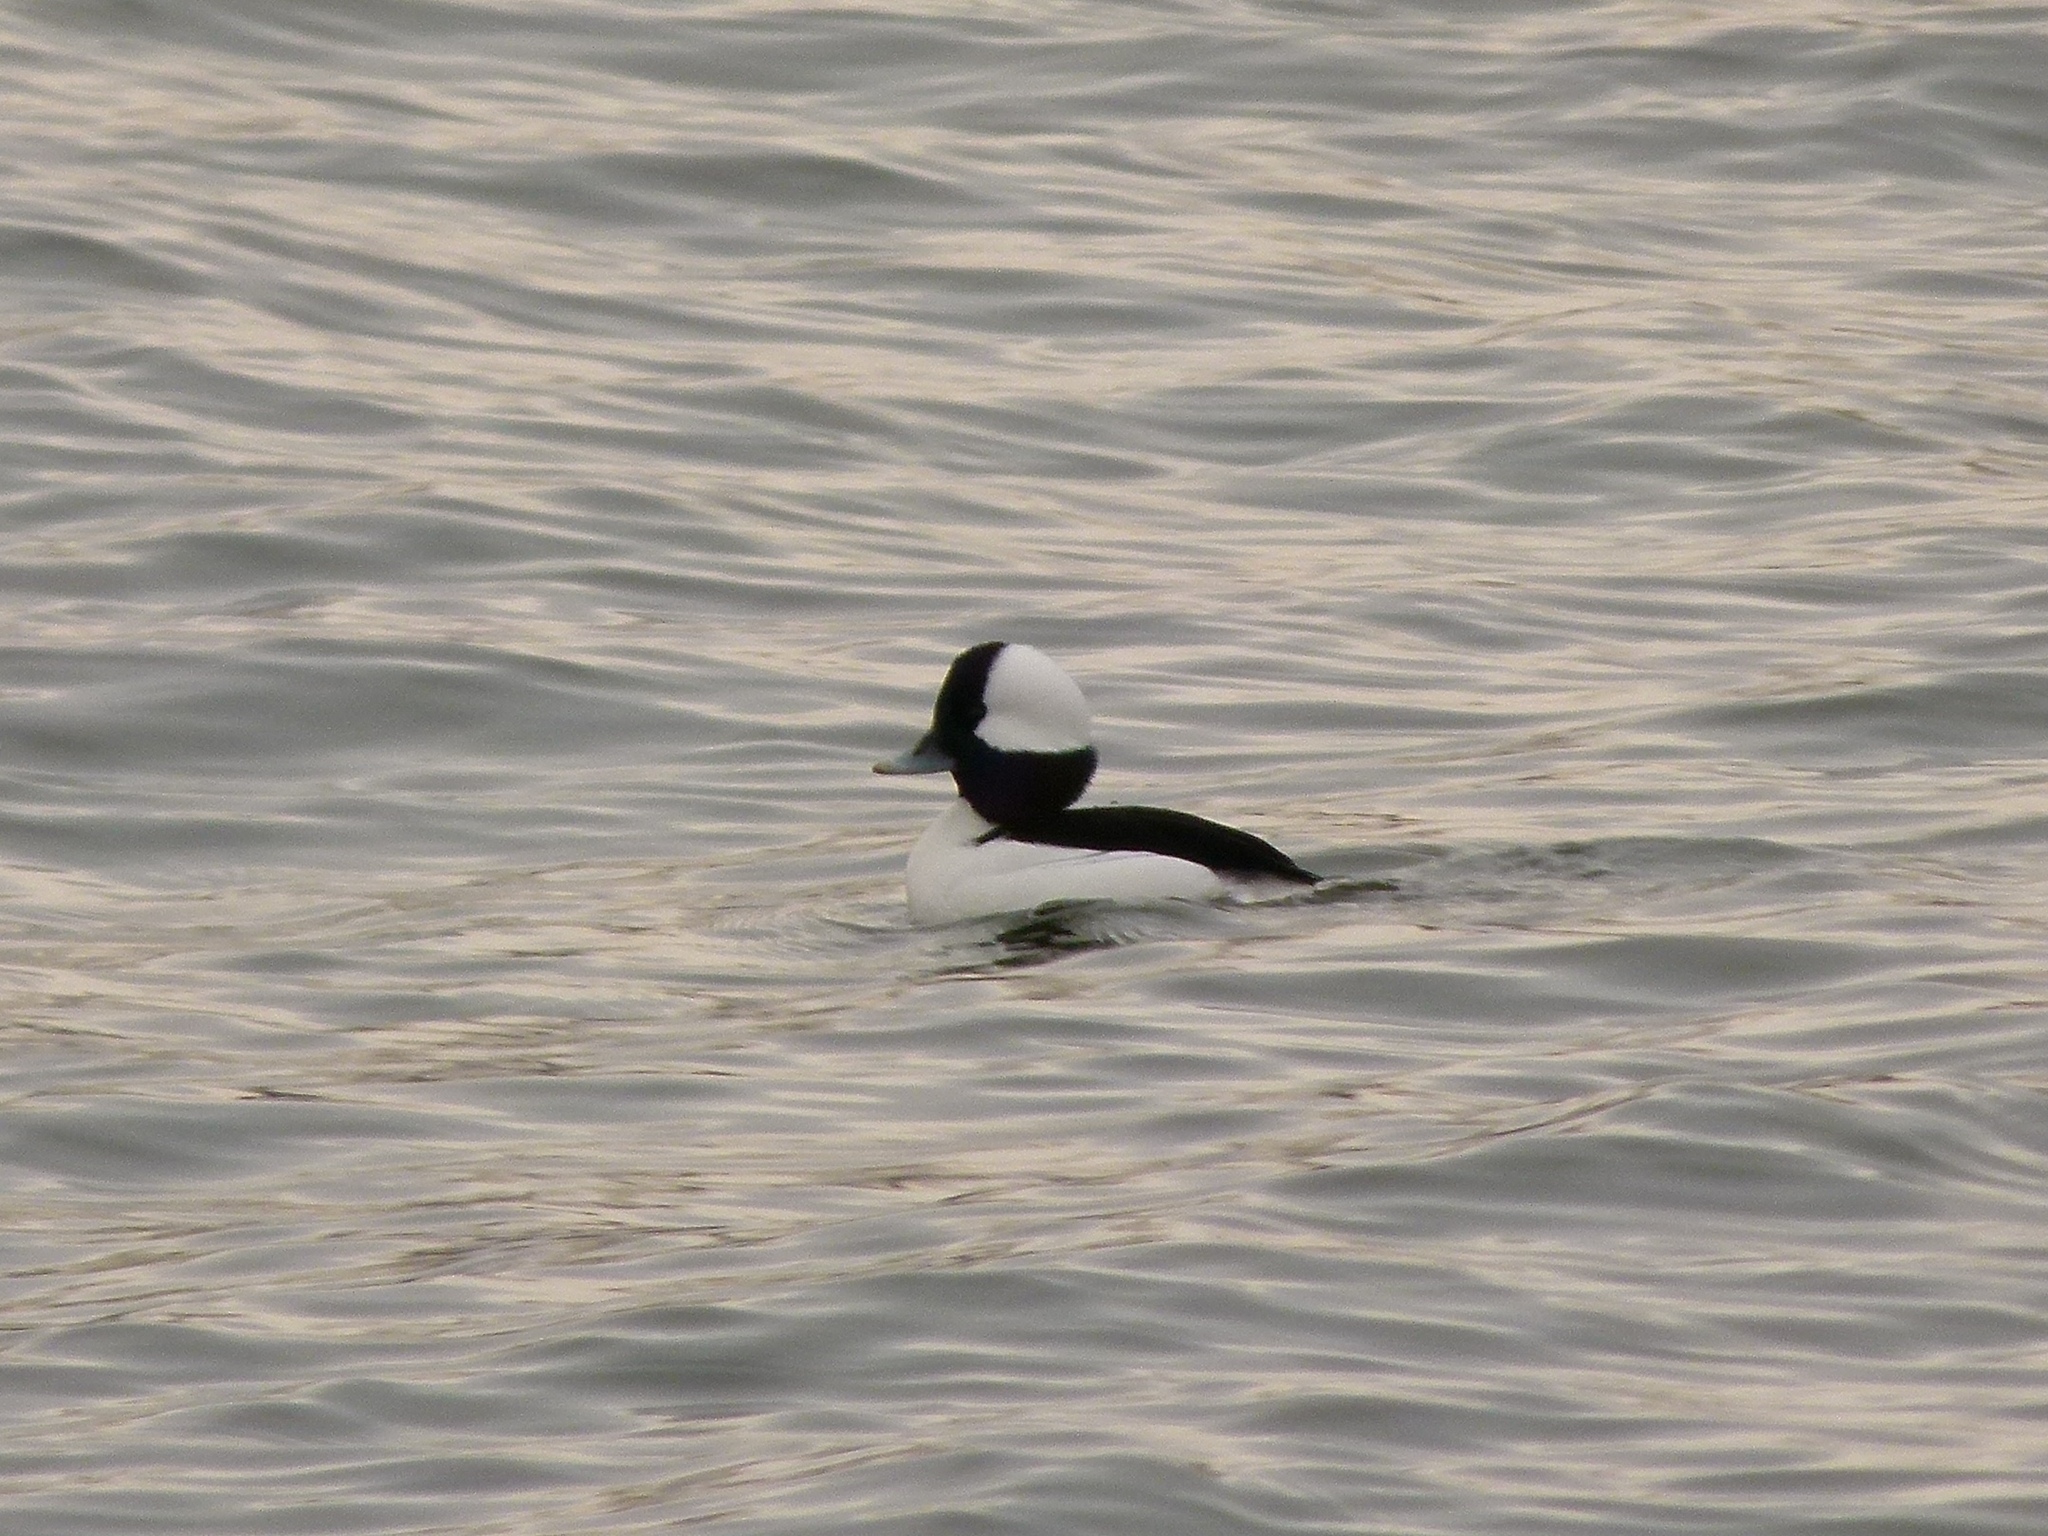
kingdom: Animalia
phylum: Chordata
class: Aves
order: Anseriformes
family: Anatidae
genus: Bucephala
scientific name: Bucephala albeola
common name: Bufflehead
